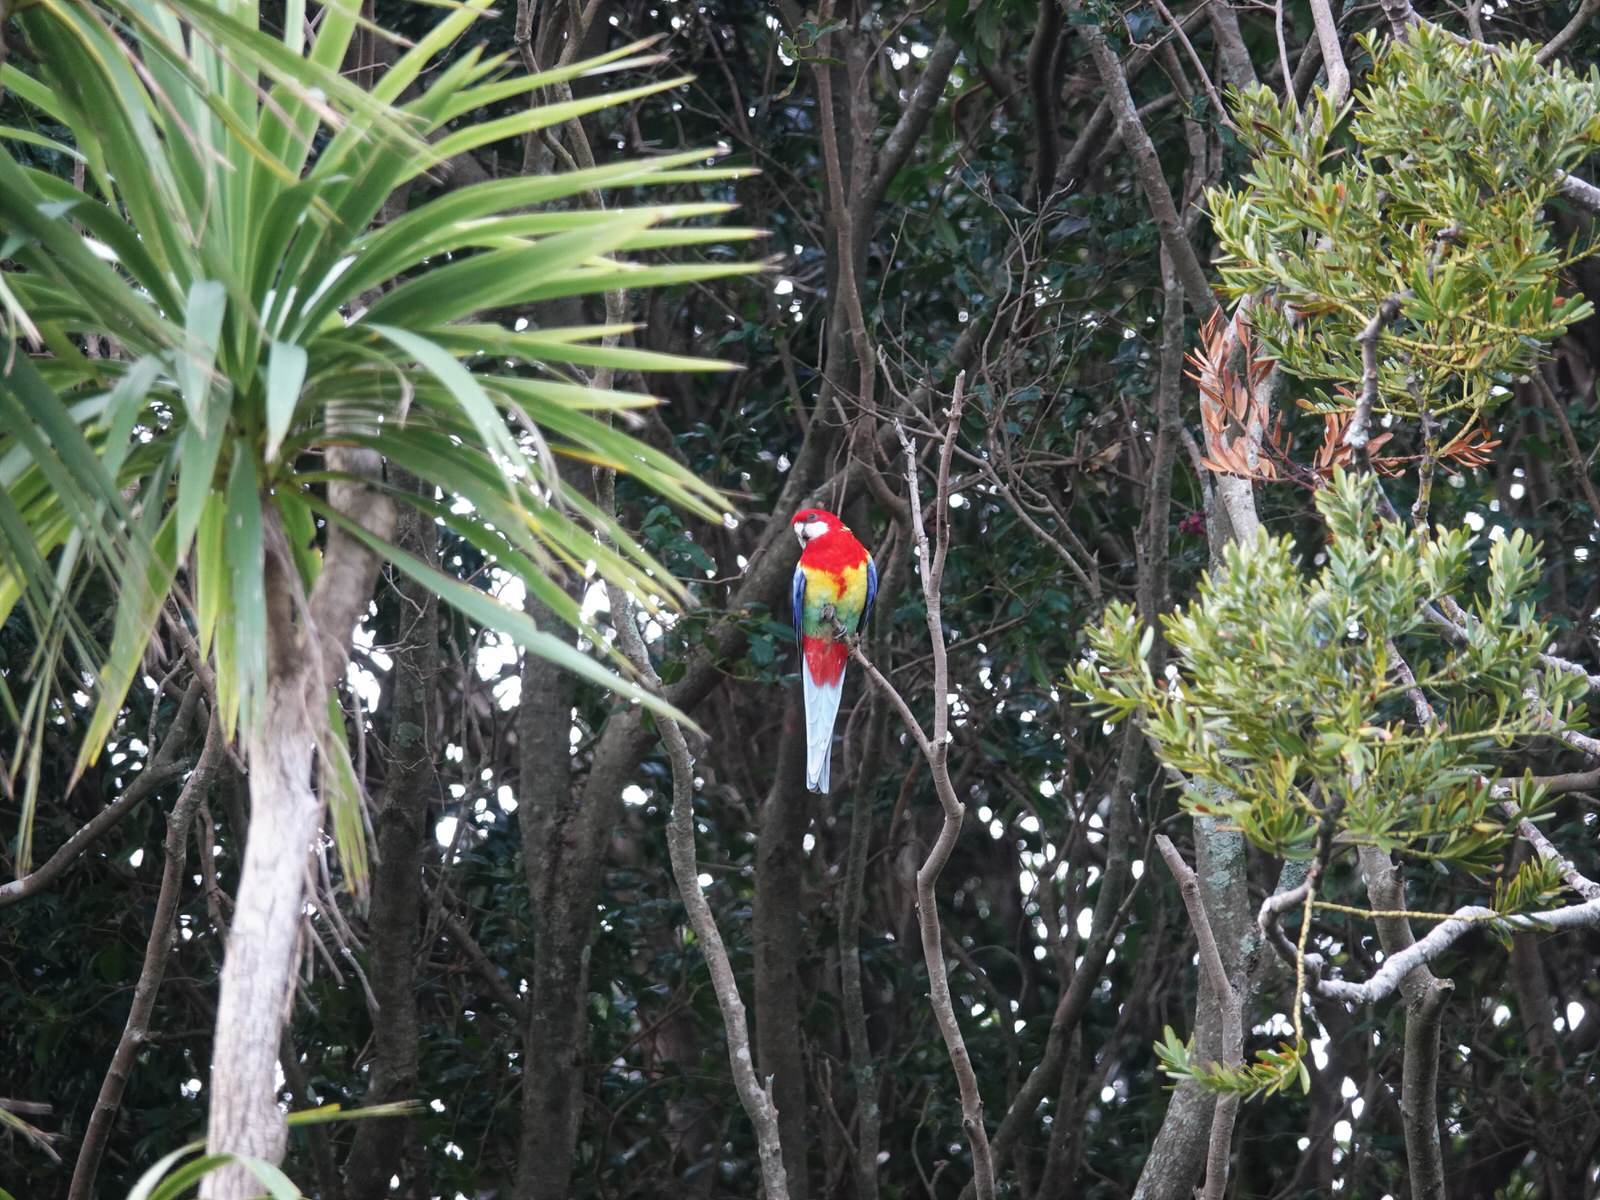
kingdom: Animalia
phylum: Chordata
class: Aves
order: Psittaciformes
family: Psittacidae
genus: Platycercus
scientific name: Platycercus eximius
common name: Eastern rosella
